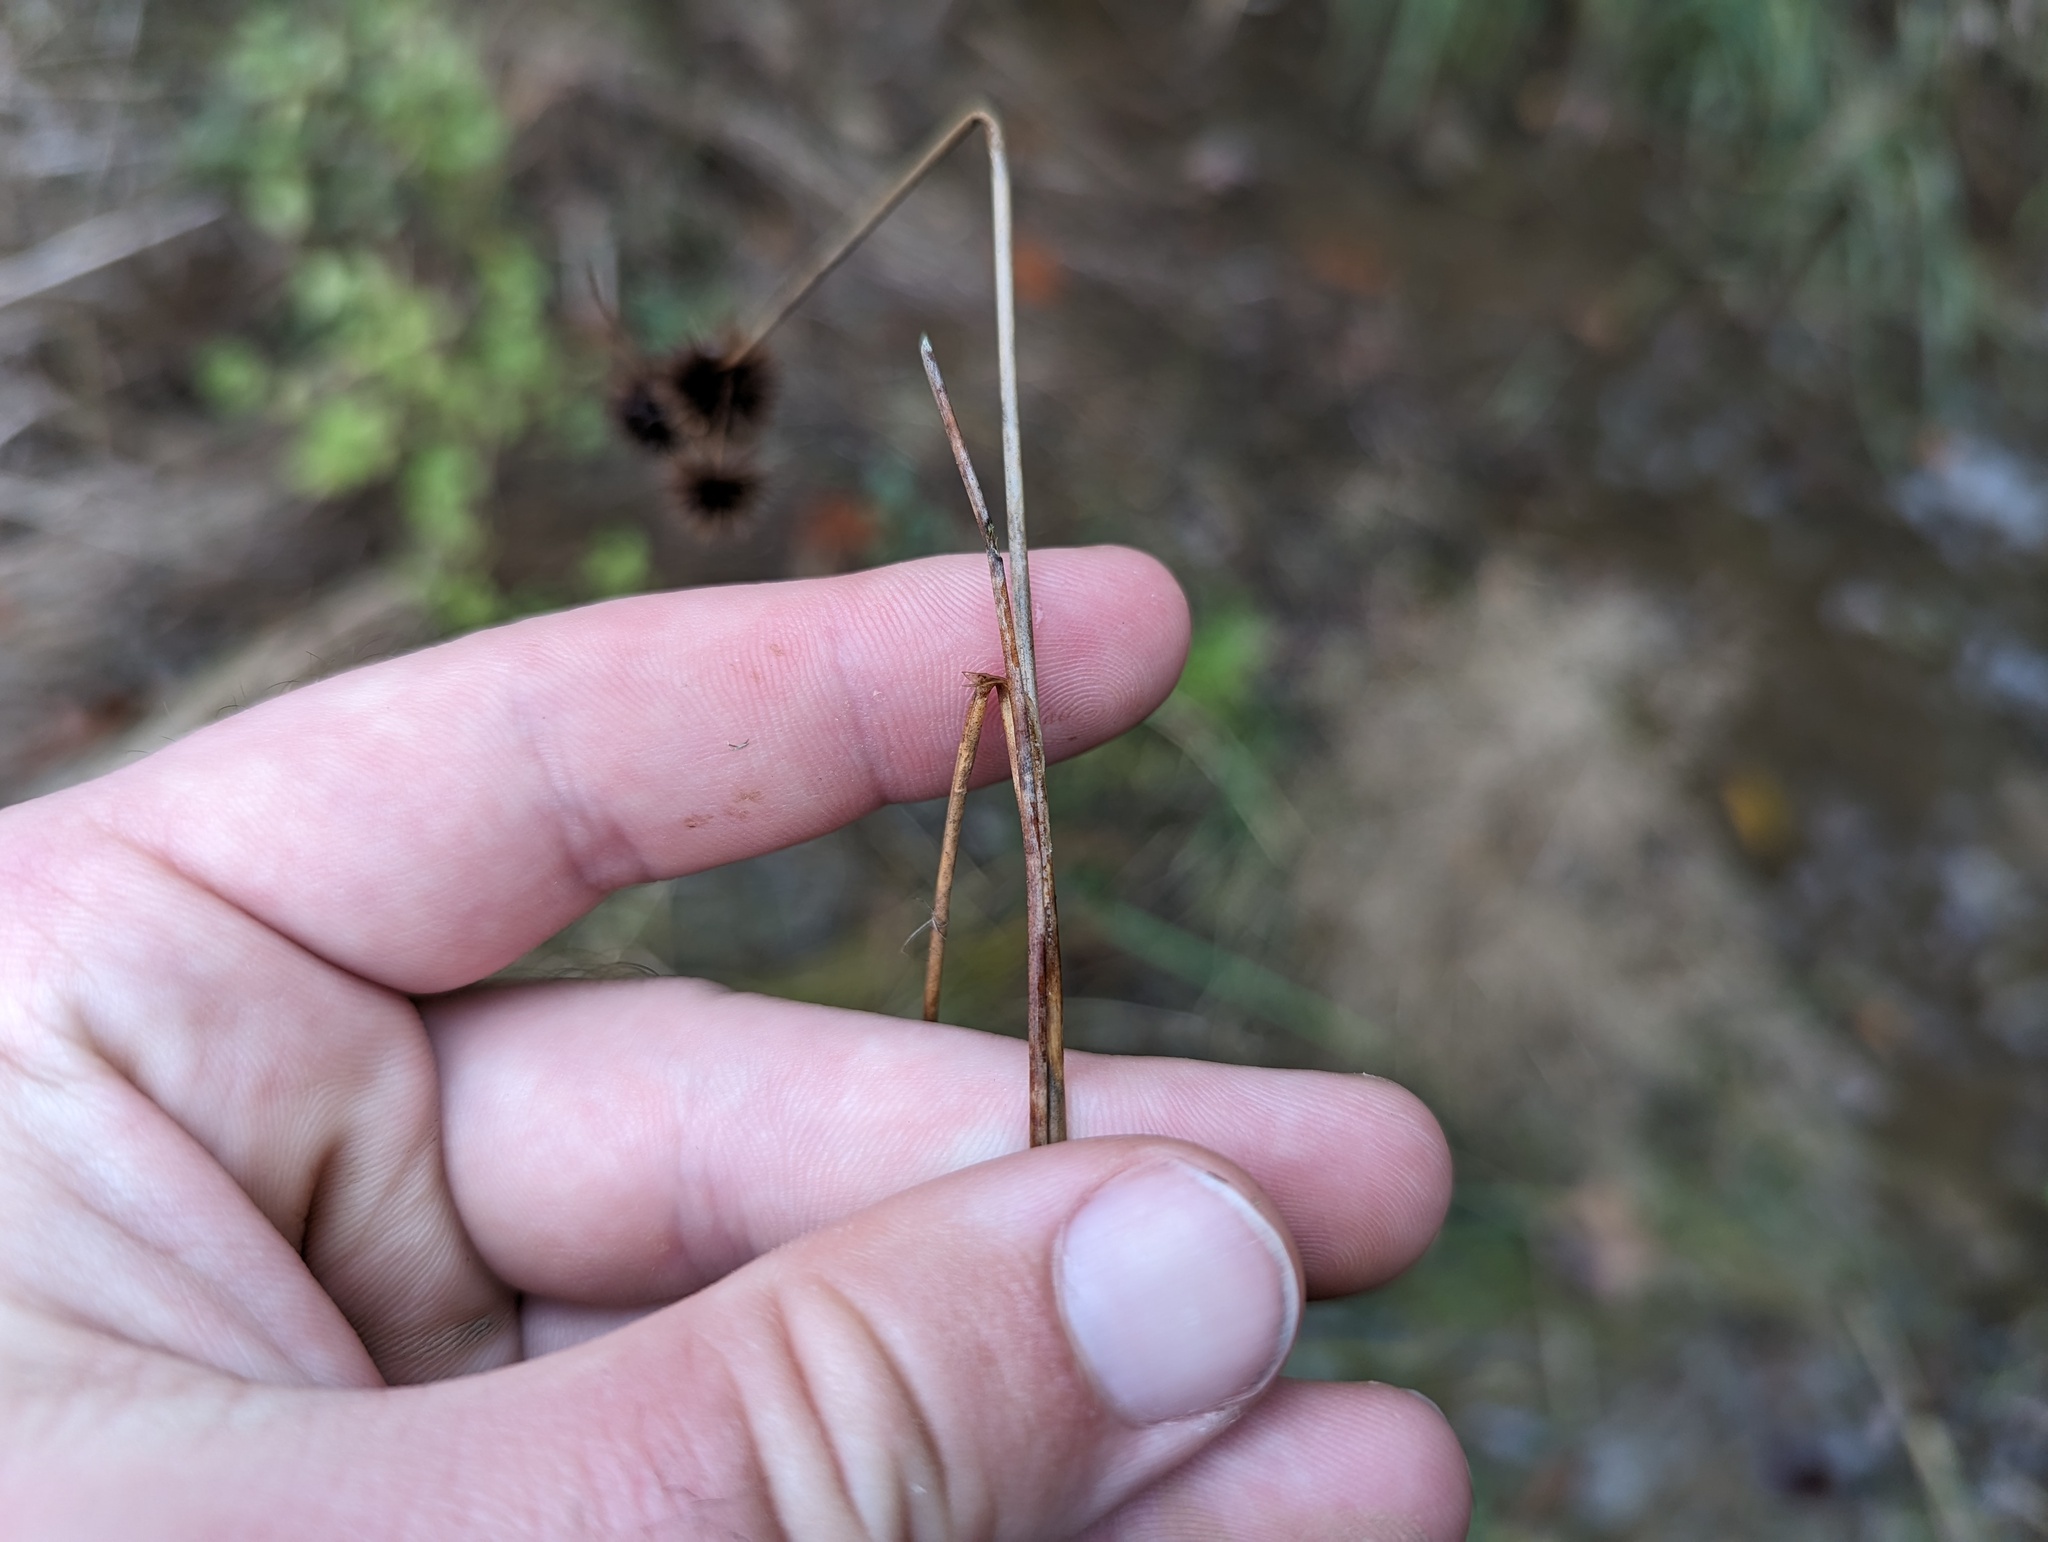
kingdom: Plantae
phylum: Tracheophyta
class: Liliopsida
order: Poales
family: Juncaceae
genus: Juncus
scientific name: Juncus torreyi
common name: Torrey's rush
